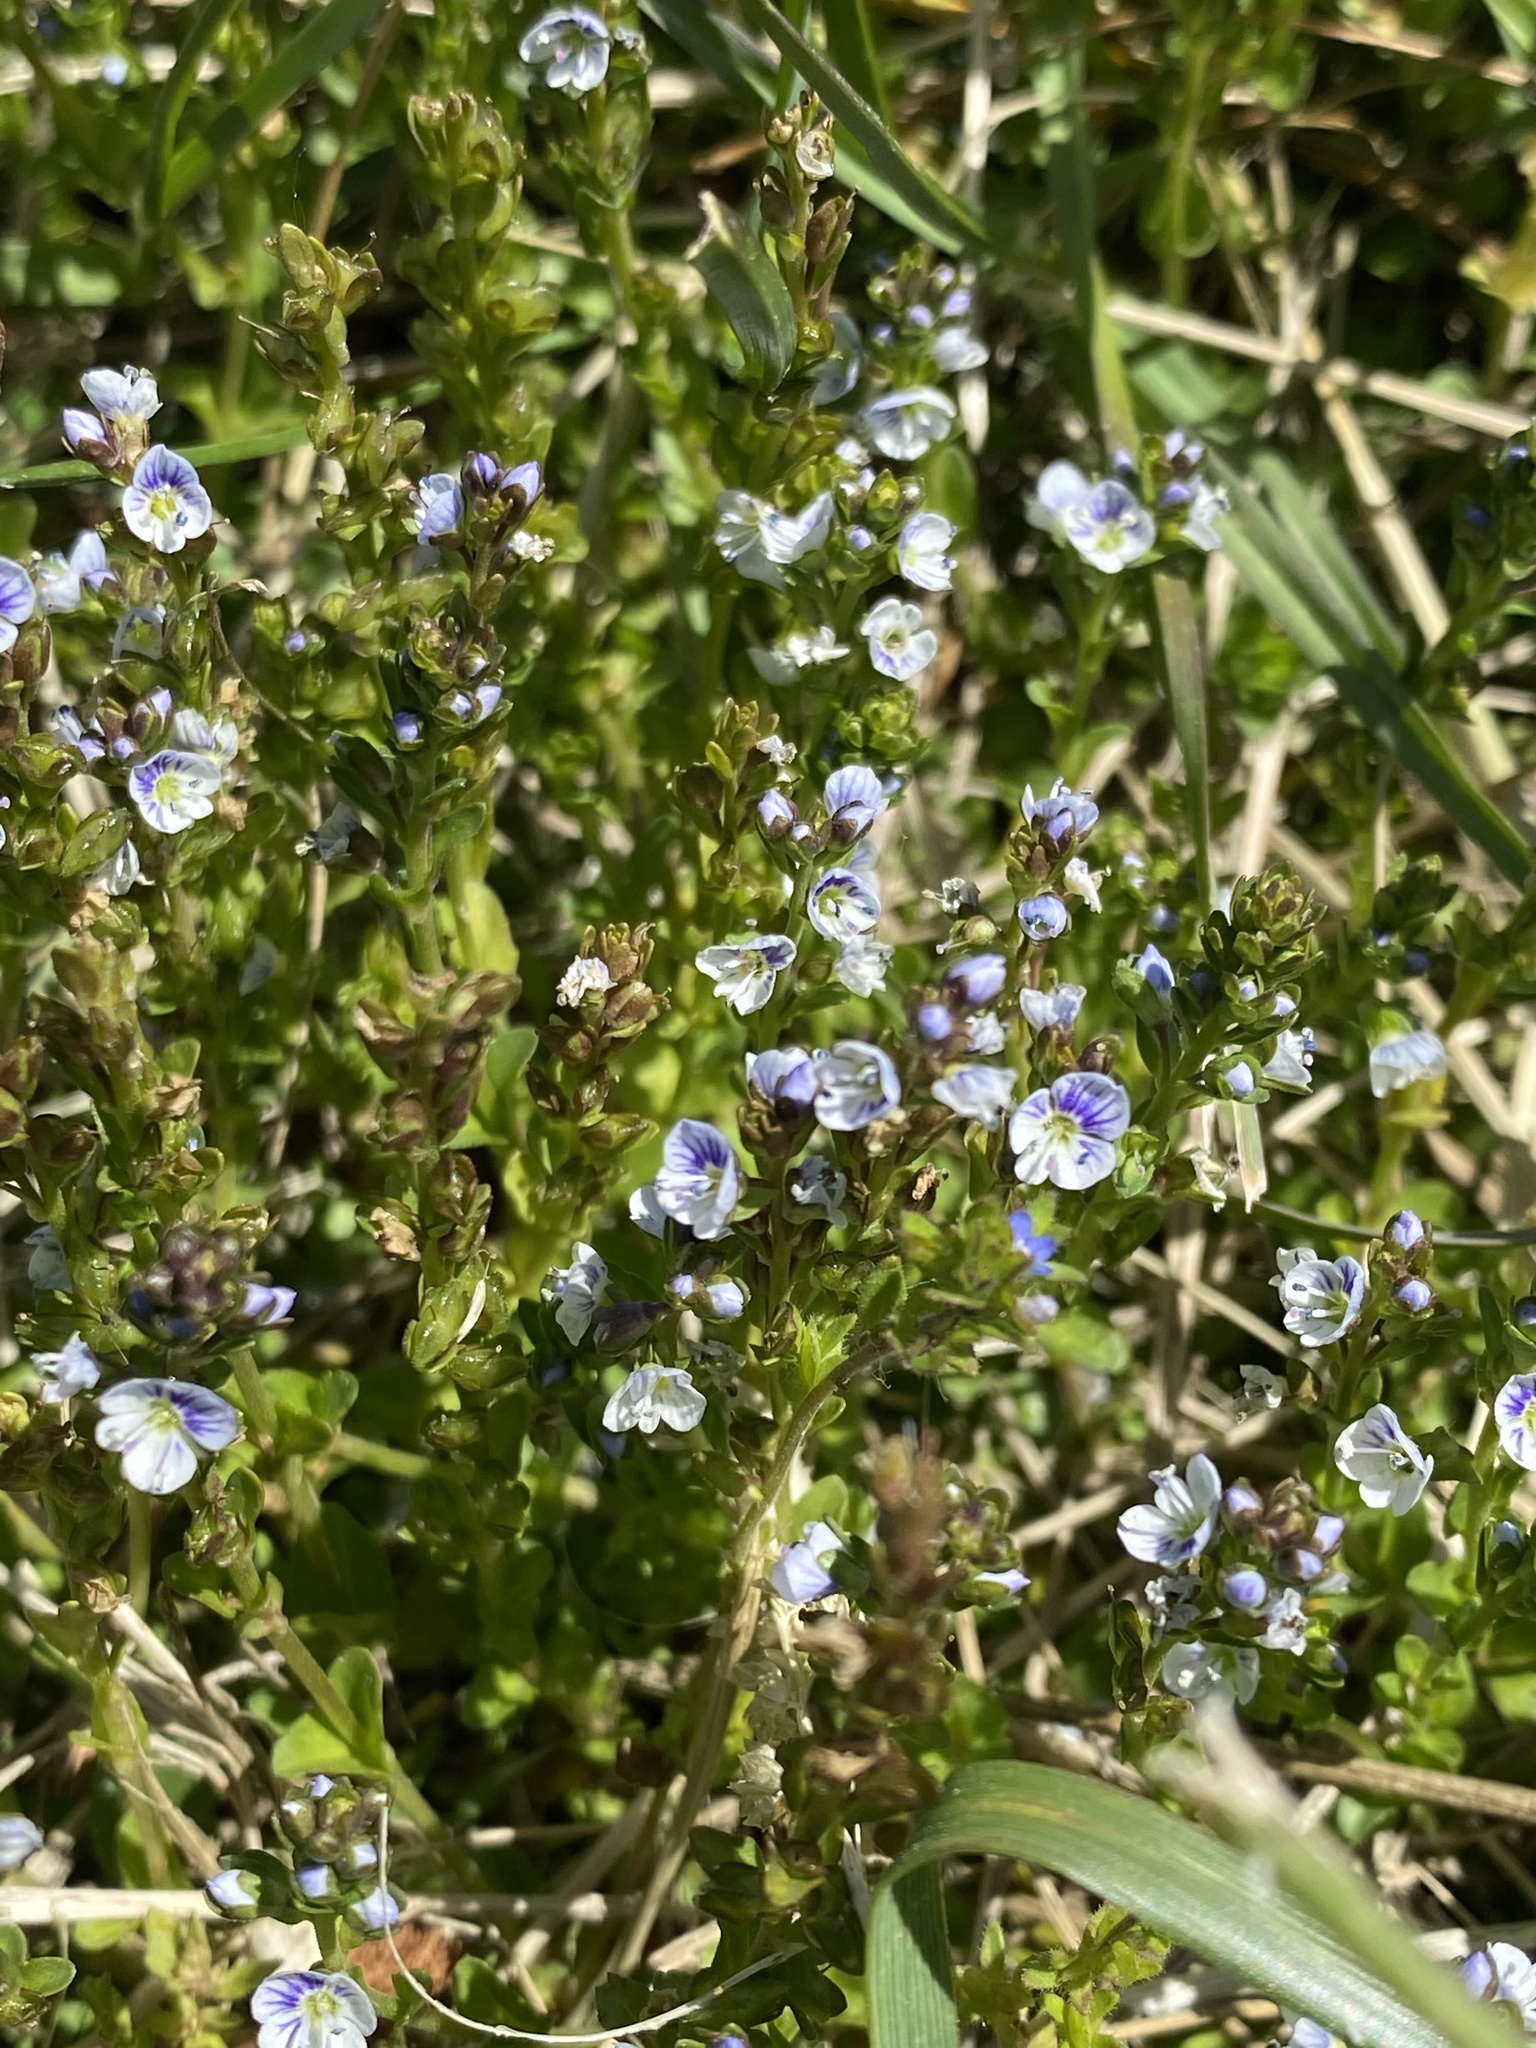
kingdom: Plantae
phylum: Tracheophyta
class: Magnoliopsida
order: Lamiales
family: Plantaginaceae
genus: Veronica
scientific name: Veronica serpyllifolia
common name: Thyme-leaved speedwell
